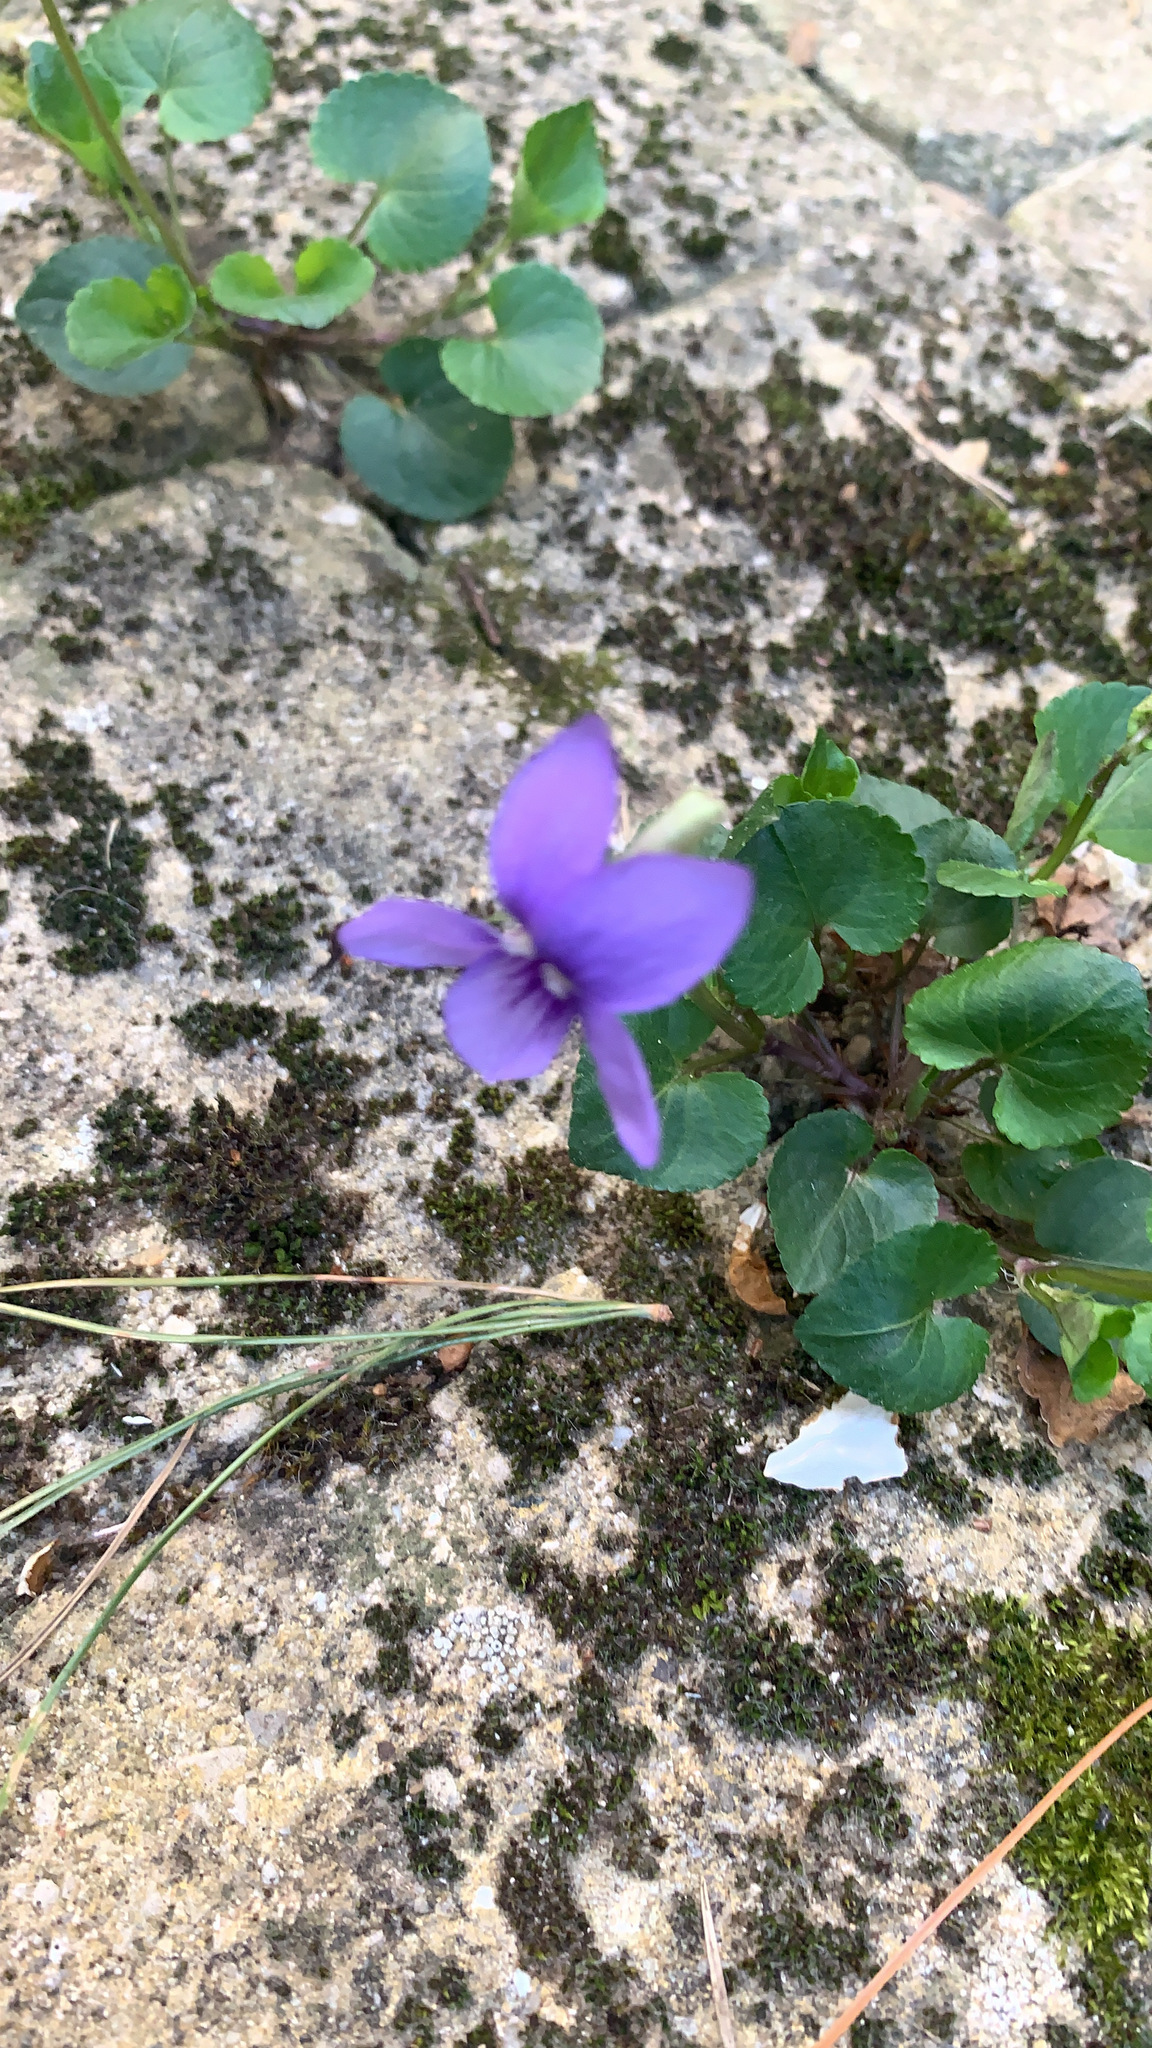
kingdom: Plantae
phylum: Tracheophyta
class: Magnoliopsida
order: Malpighiales
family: Violaceae
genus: Viola
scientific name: Viola odorata
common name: Sweet violet
